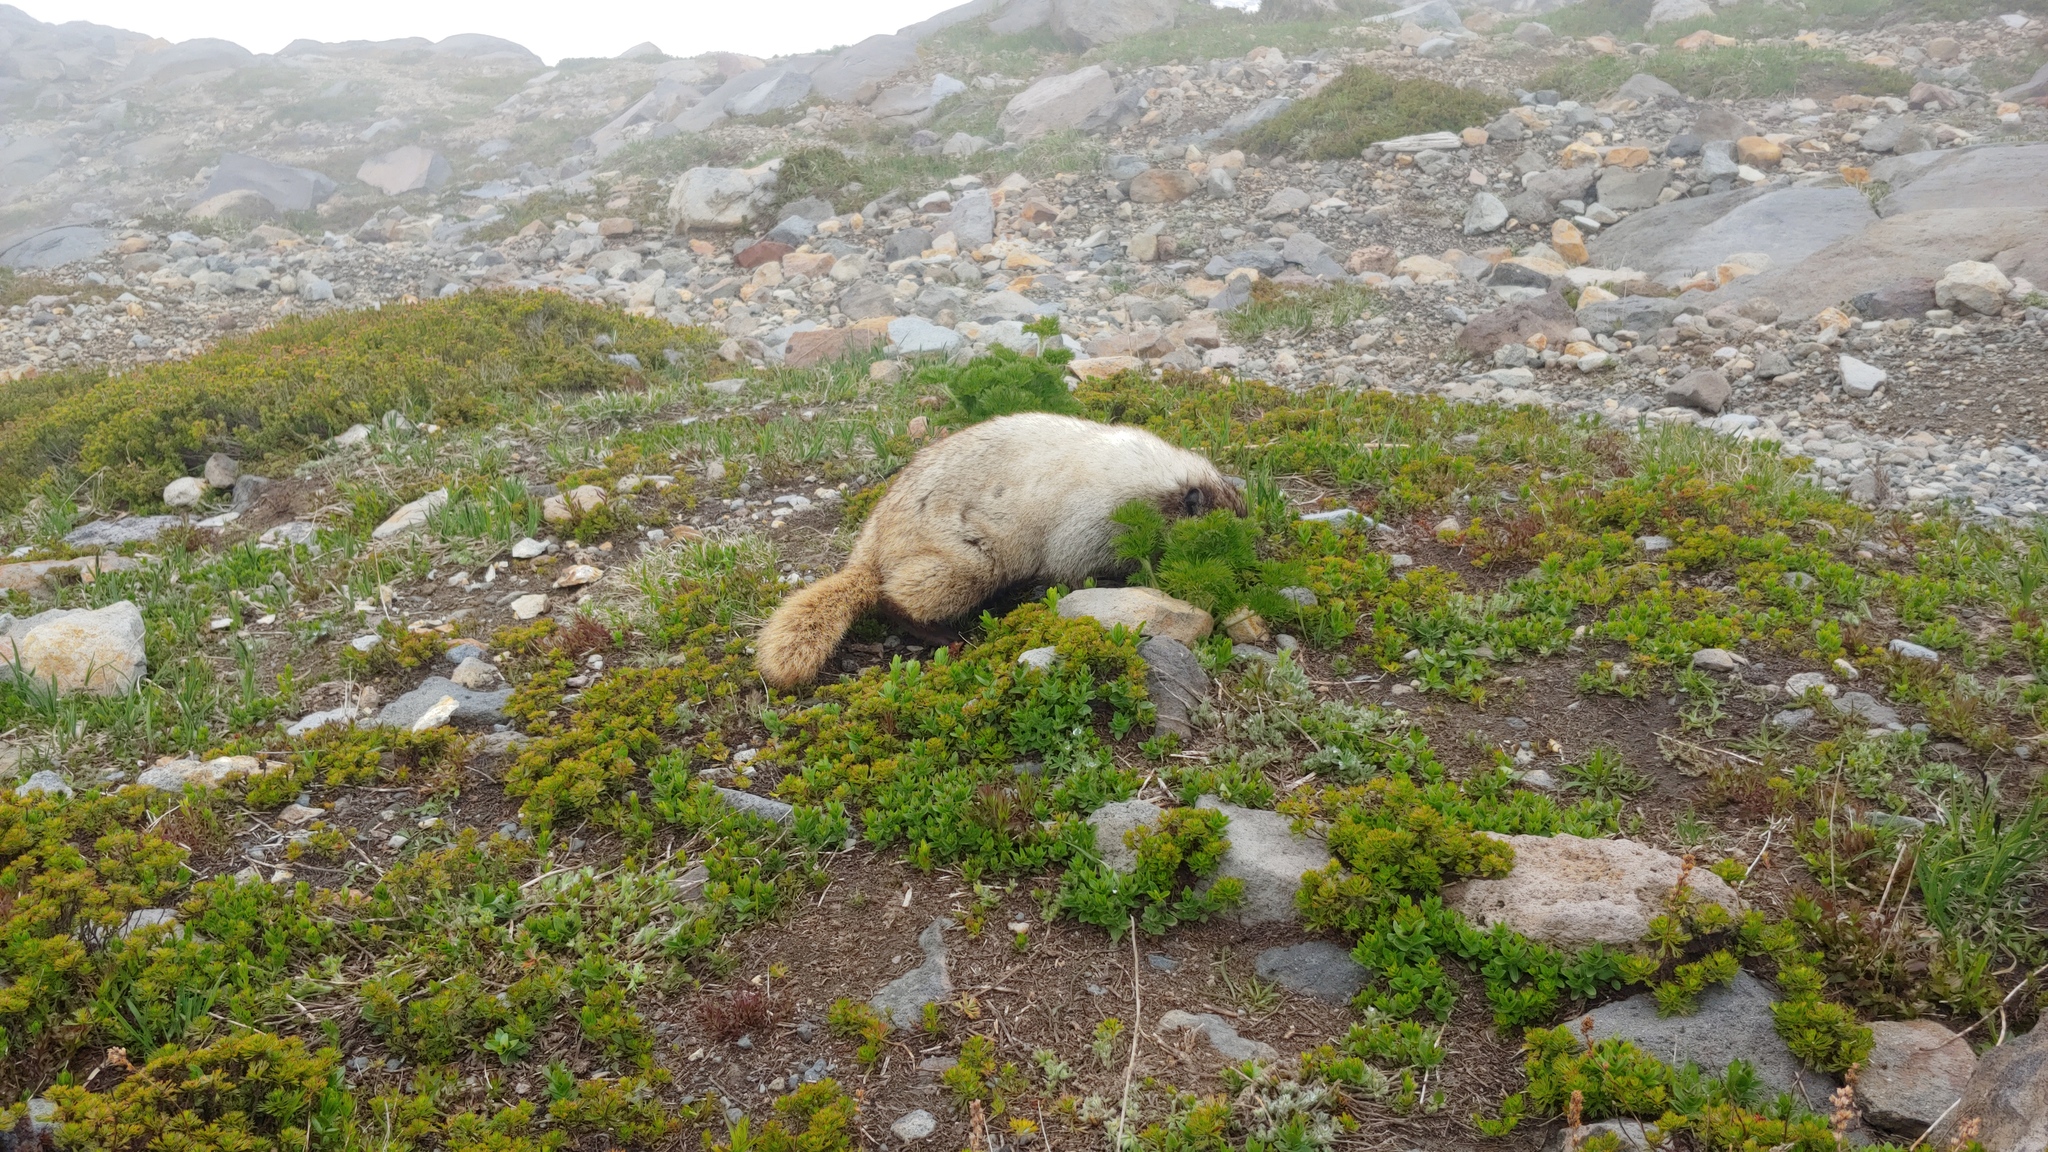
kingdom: Animalia
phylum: Chordata
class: Mammalia
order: Rodentia
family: Sciuridae
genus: Marmota
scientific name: Marmota caligata
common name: Hoary marmot
